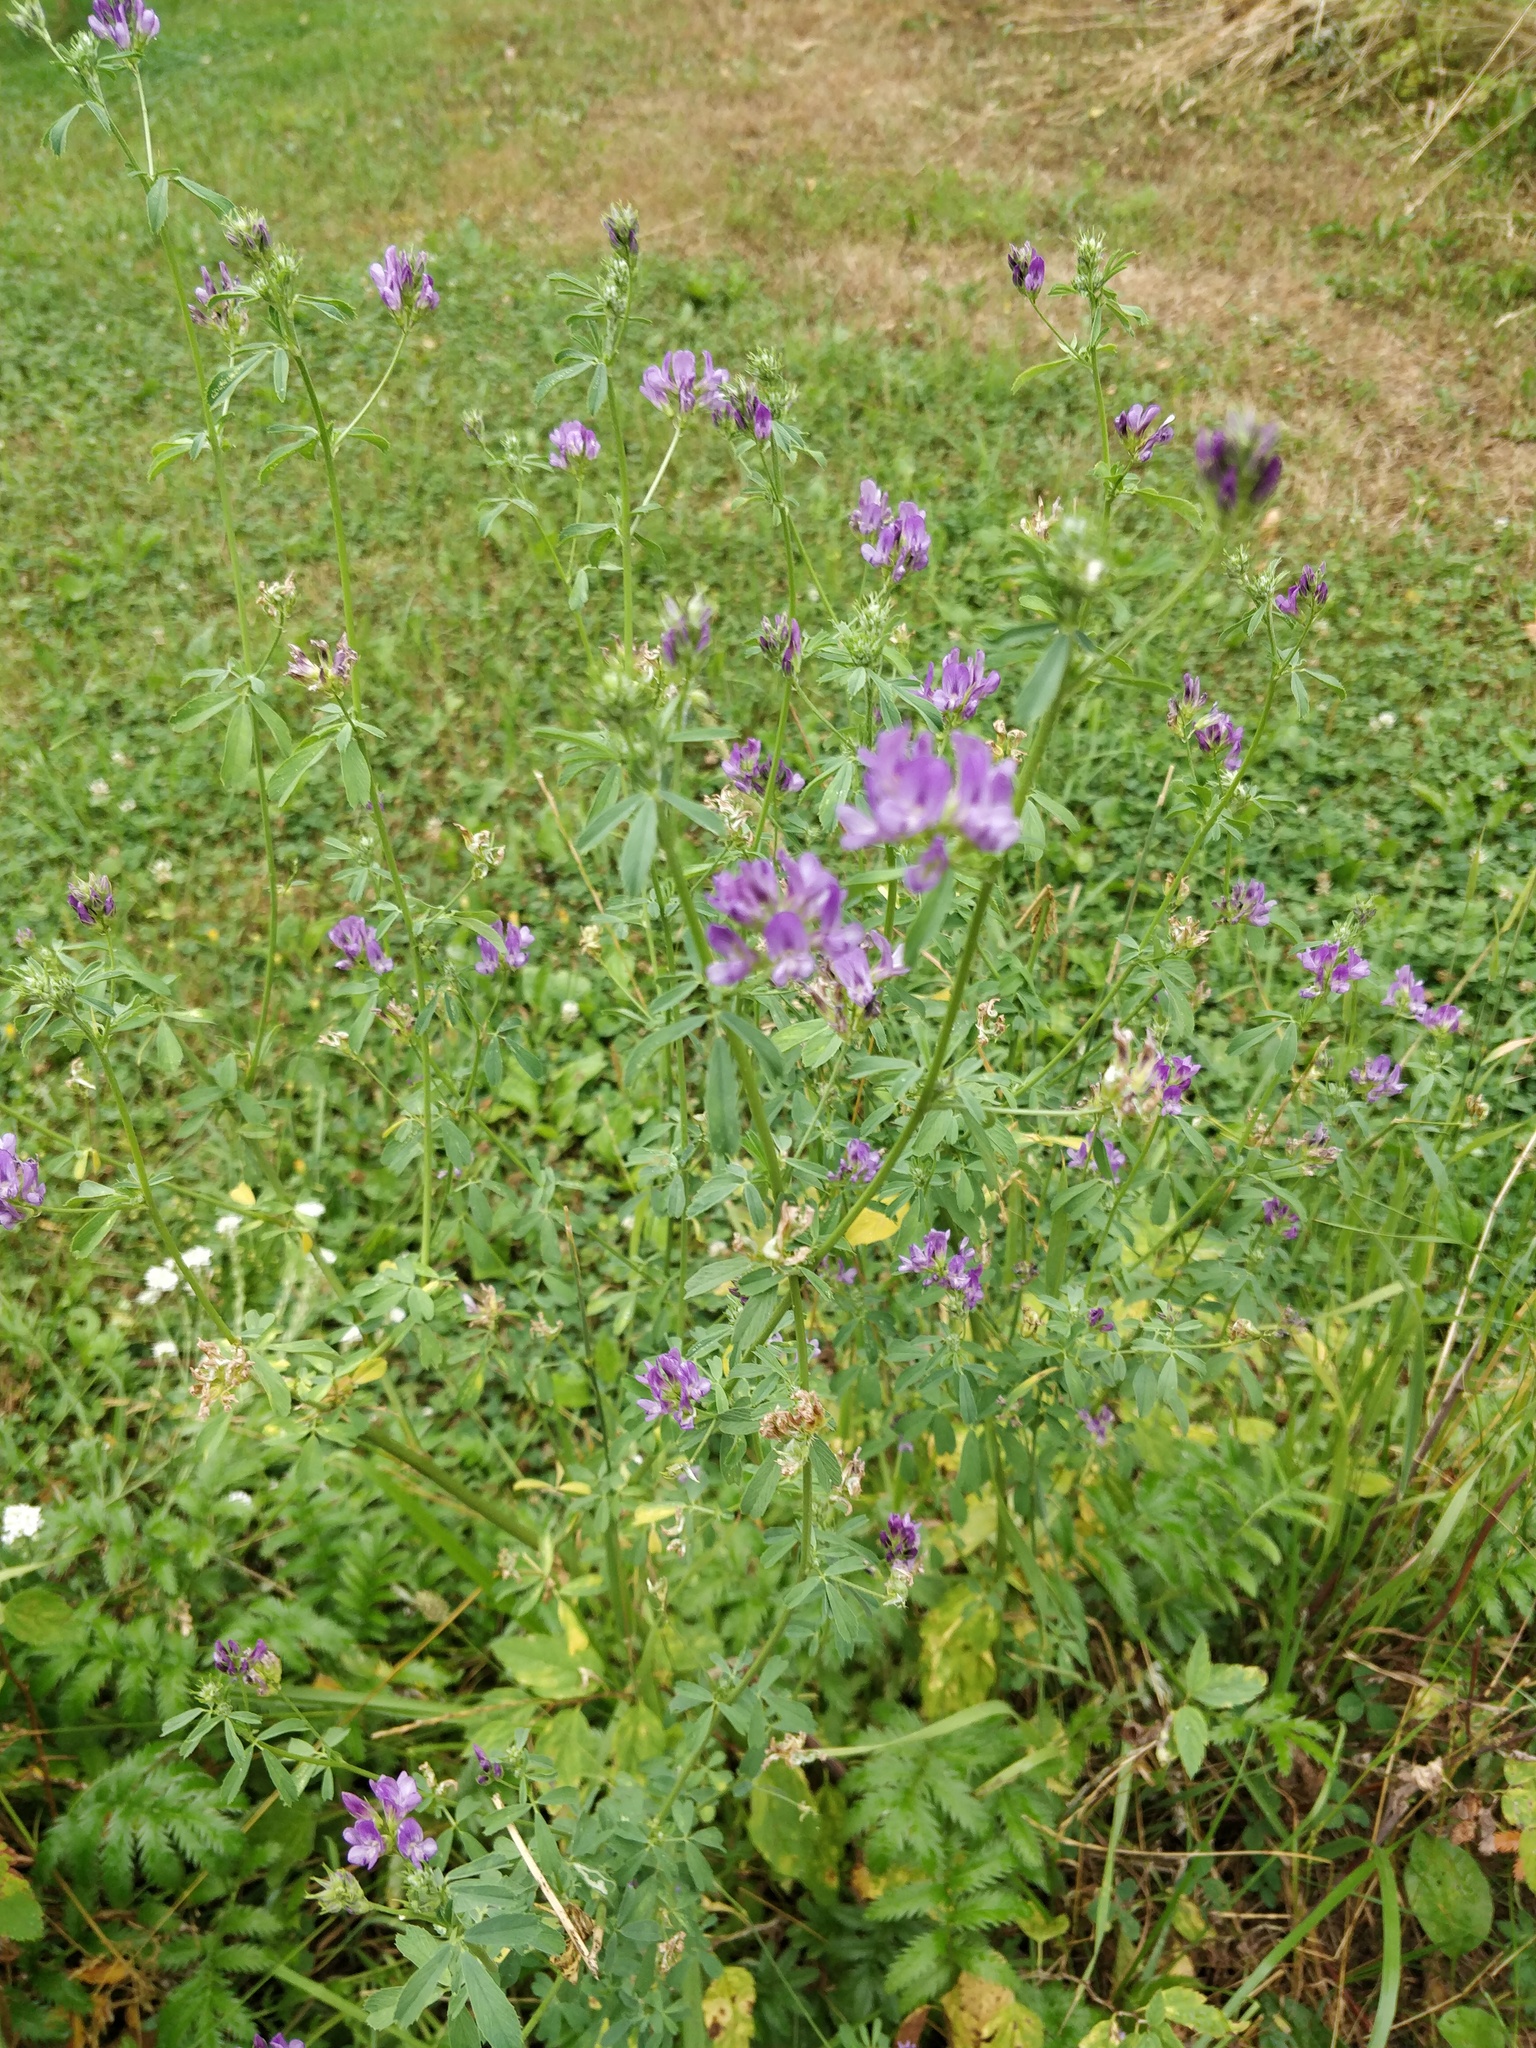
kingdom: Plantae
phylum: Tracheophyta
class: Magnoliopsida
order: Fabales
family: Fabaceae
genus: Medicago
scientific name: Medicago varia
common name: Sand lucerne
